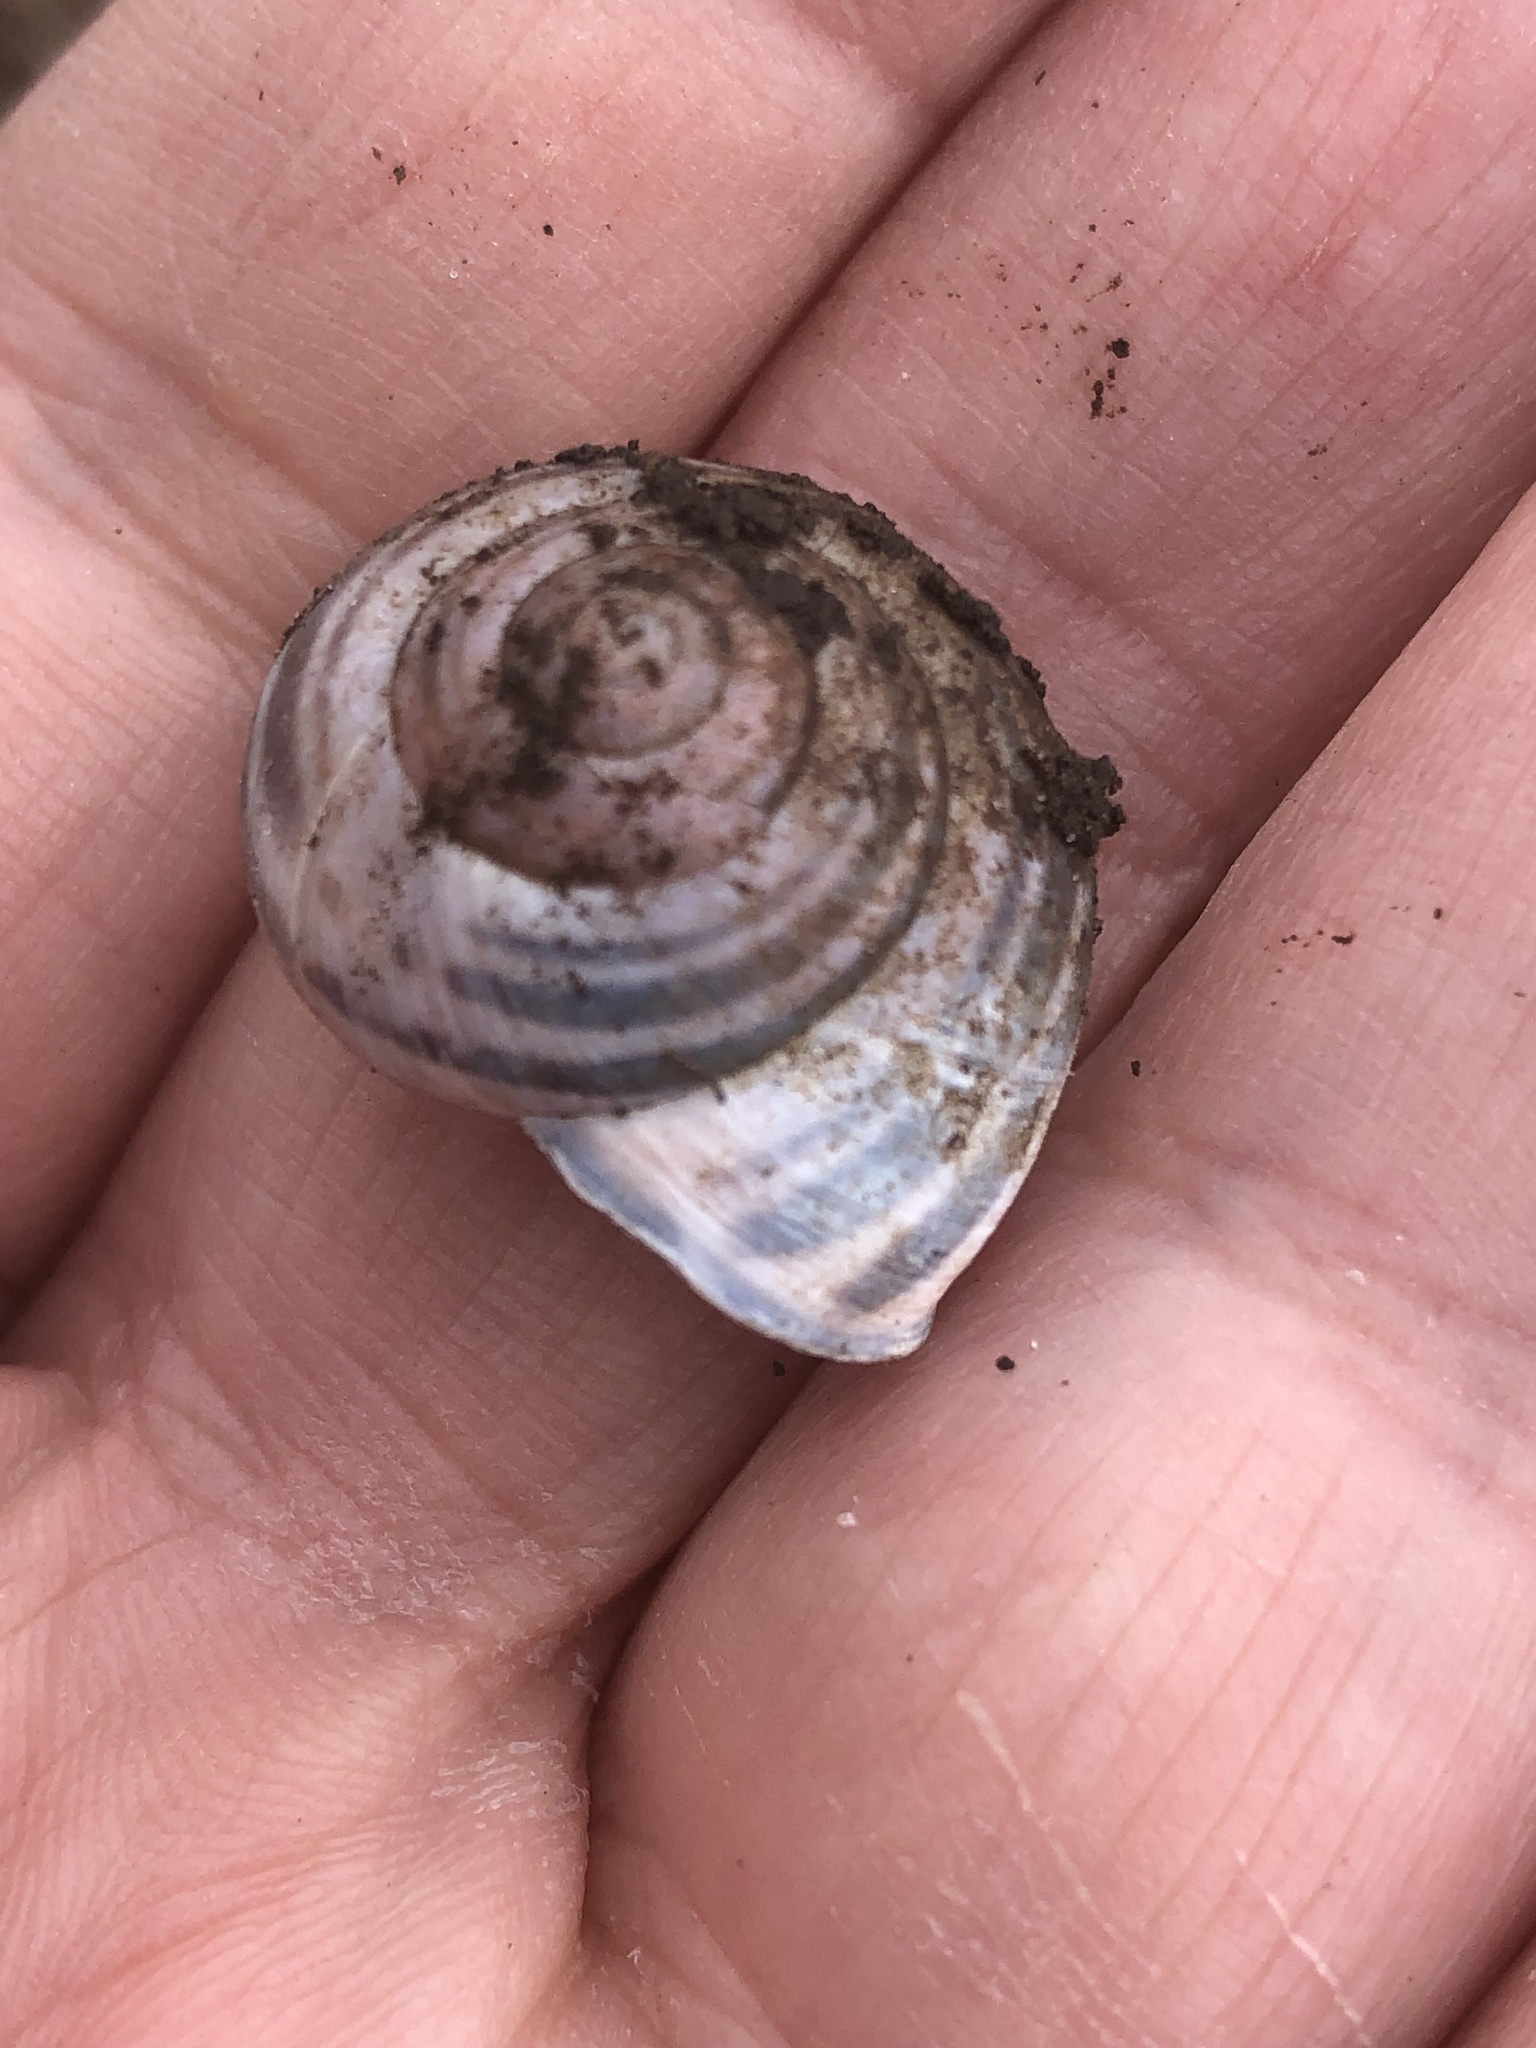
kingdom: Animalia
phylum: Mollusca
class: Gastropoda
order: Stylommatophora
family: Helicidae
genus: Cepaea
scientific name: Cepaea nemoralis
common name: Grovesnail
